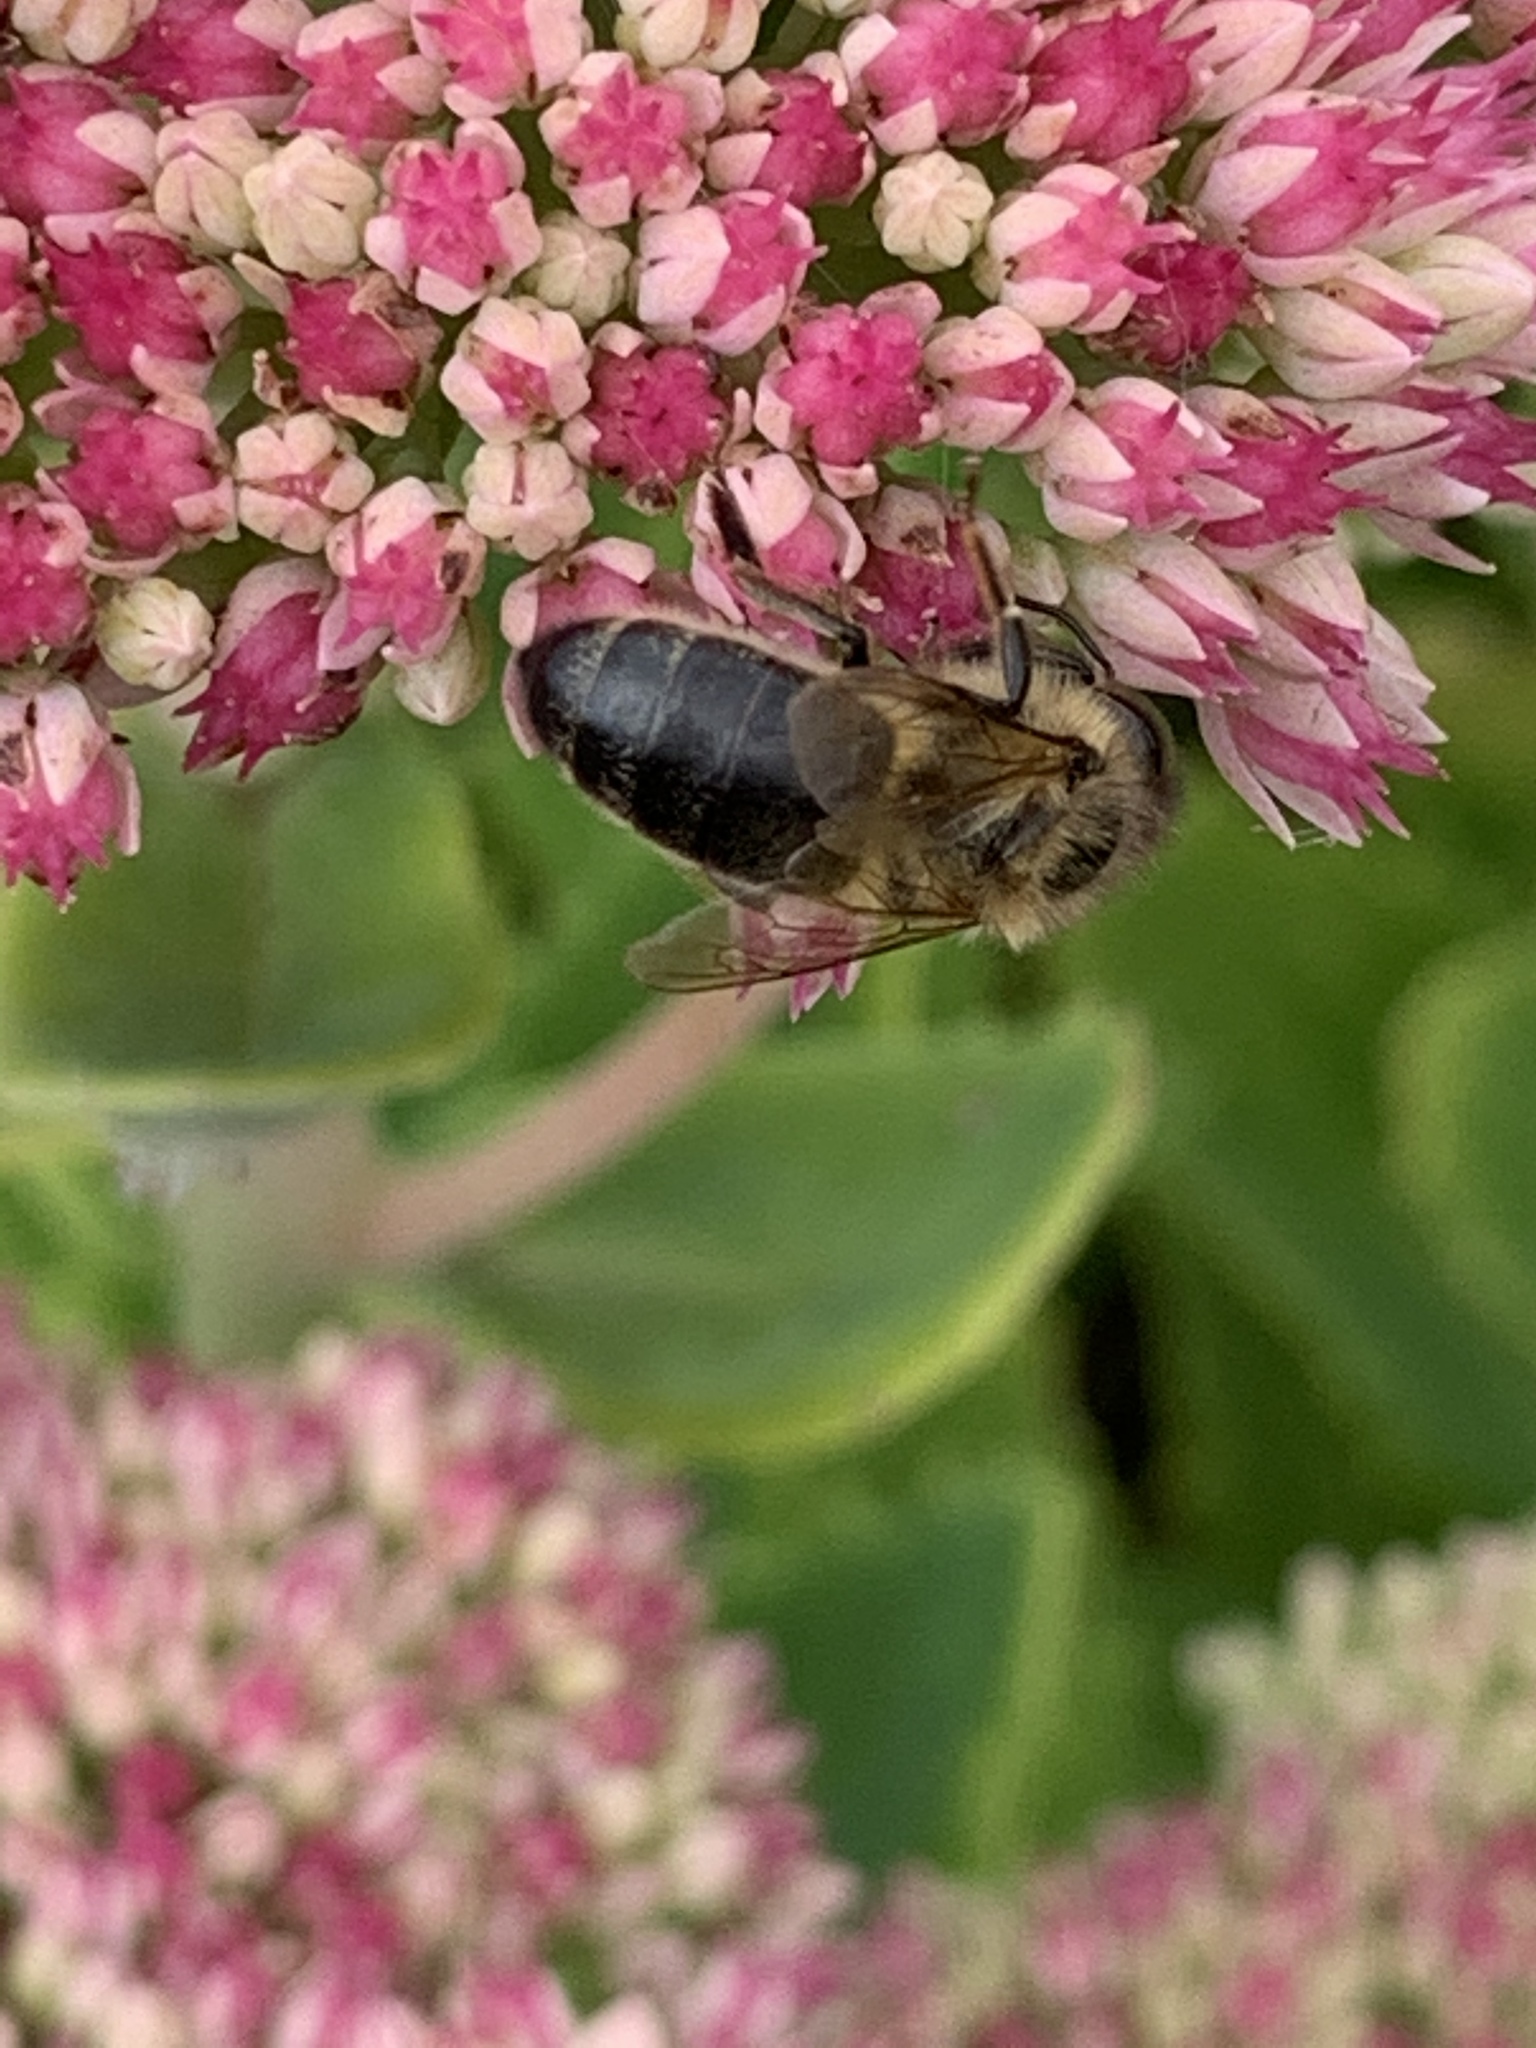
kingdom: Animalia
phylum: Arthropoda
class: Insecta
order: Hymenoptera
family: Apidae
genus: Apis
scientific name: Apis mellifera
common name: Honey bee
